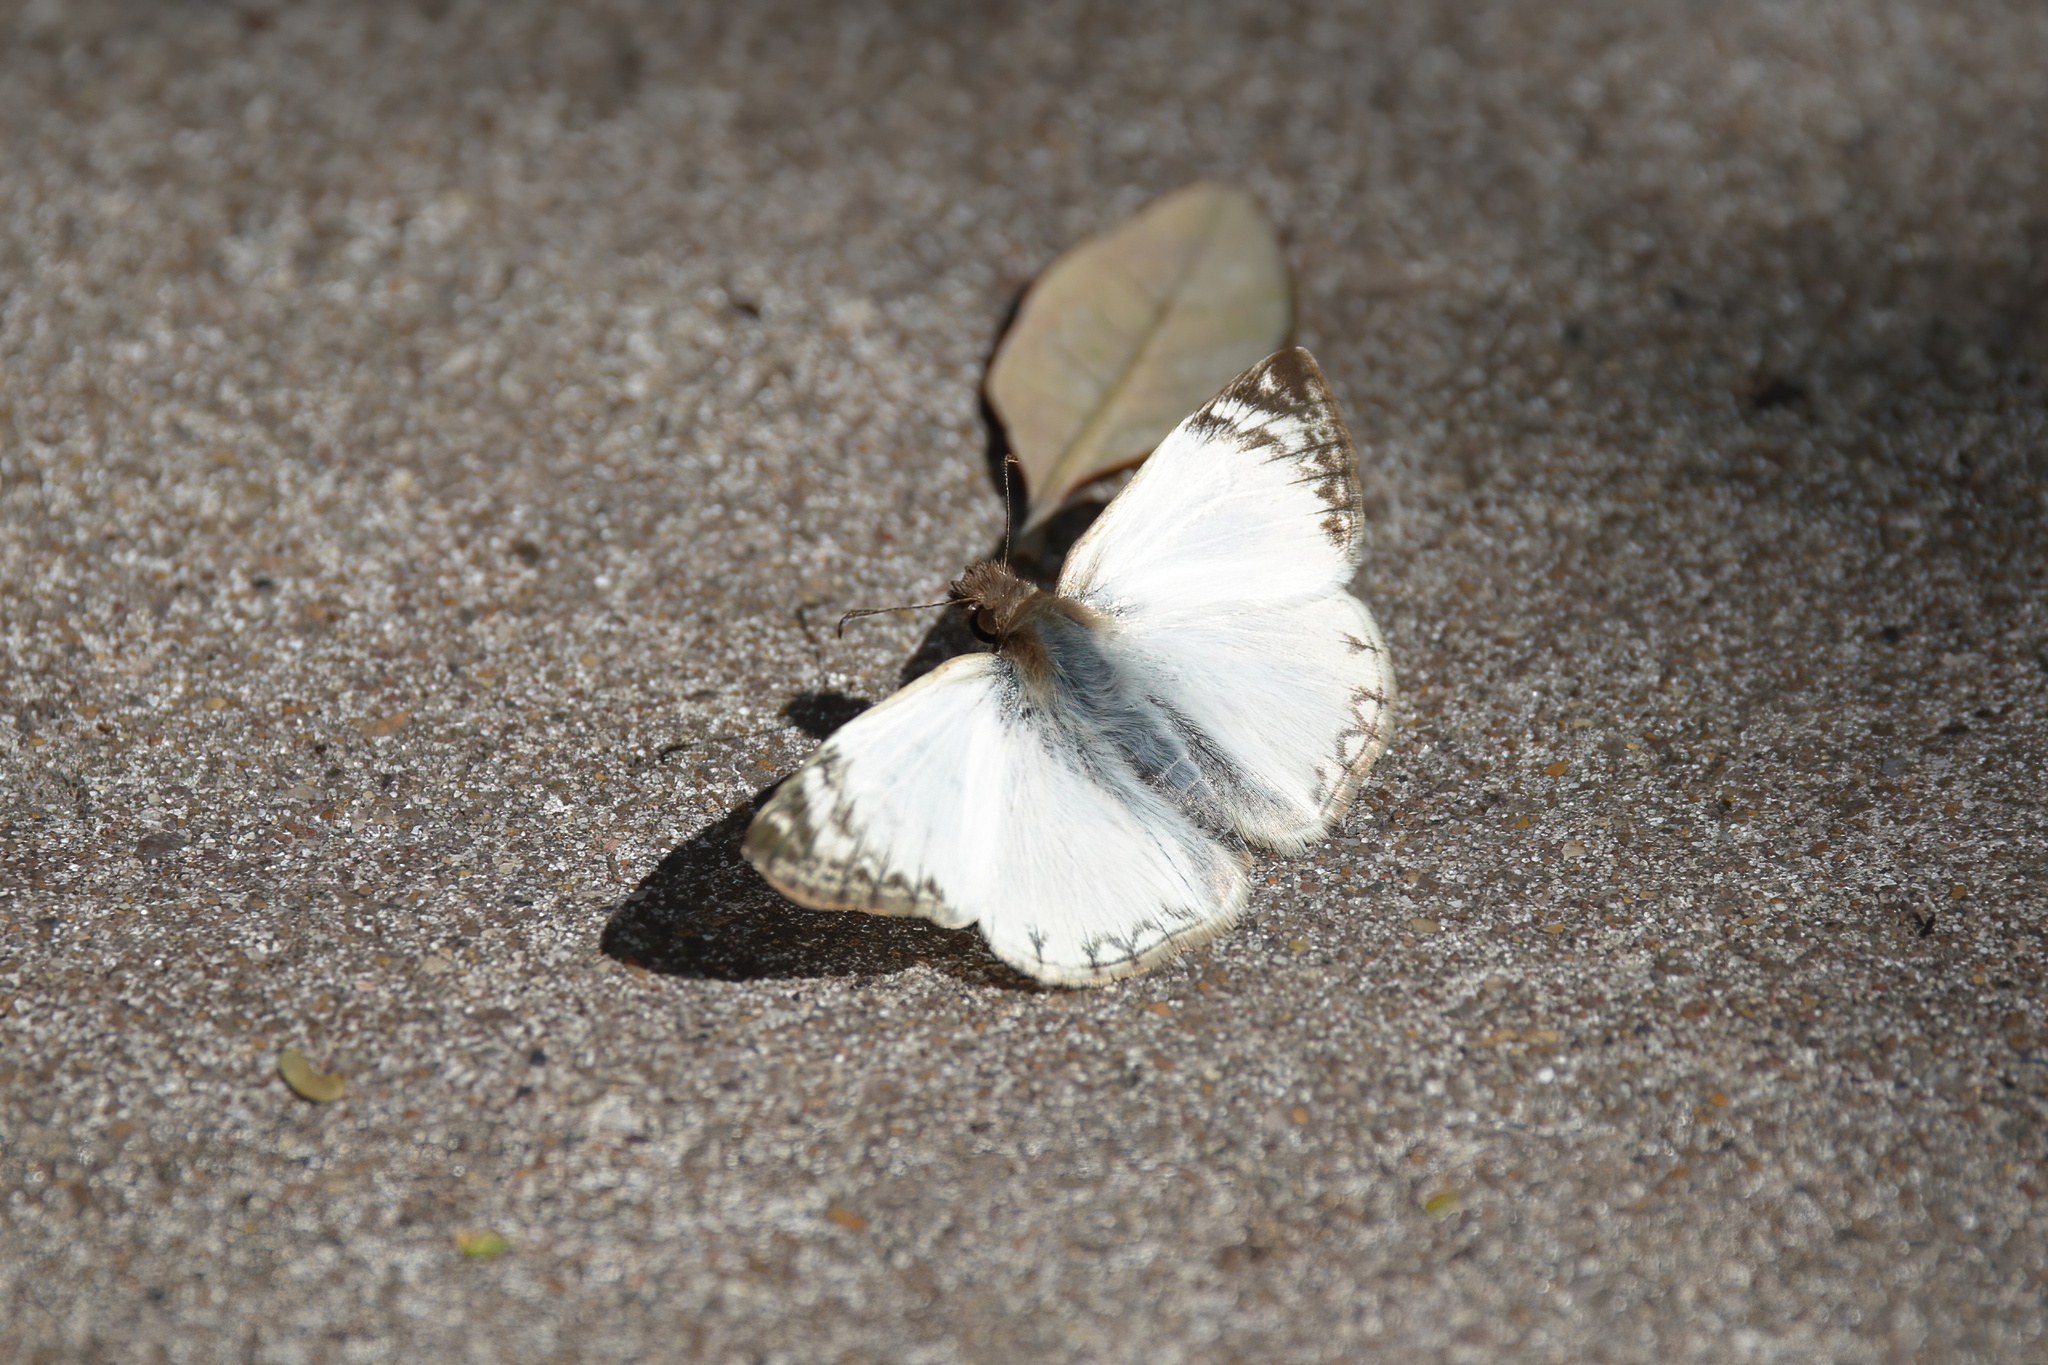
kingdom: Animalia
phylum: Arthropoda
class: Insecta
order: Lepidoptera
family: Hesperiidae
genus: Heliopetes
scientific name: Heliopetes laviana
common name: Laviana white-skipper
